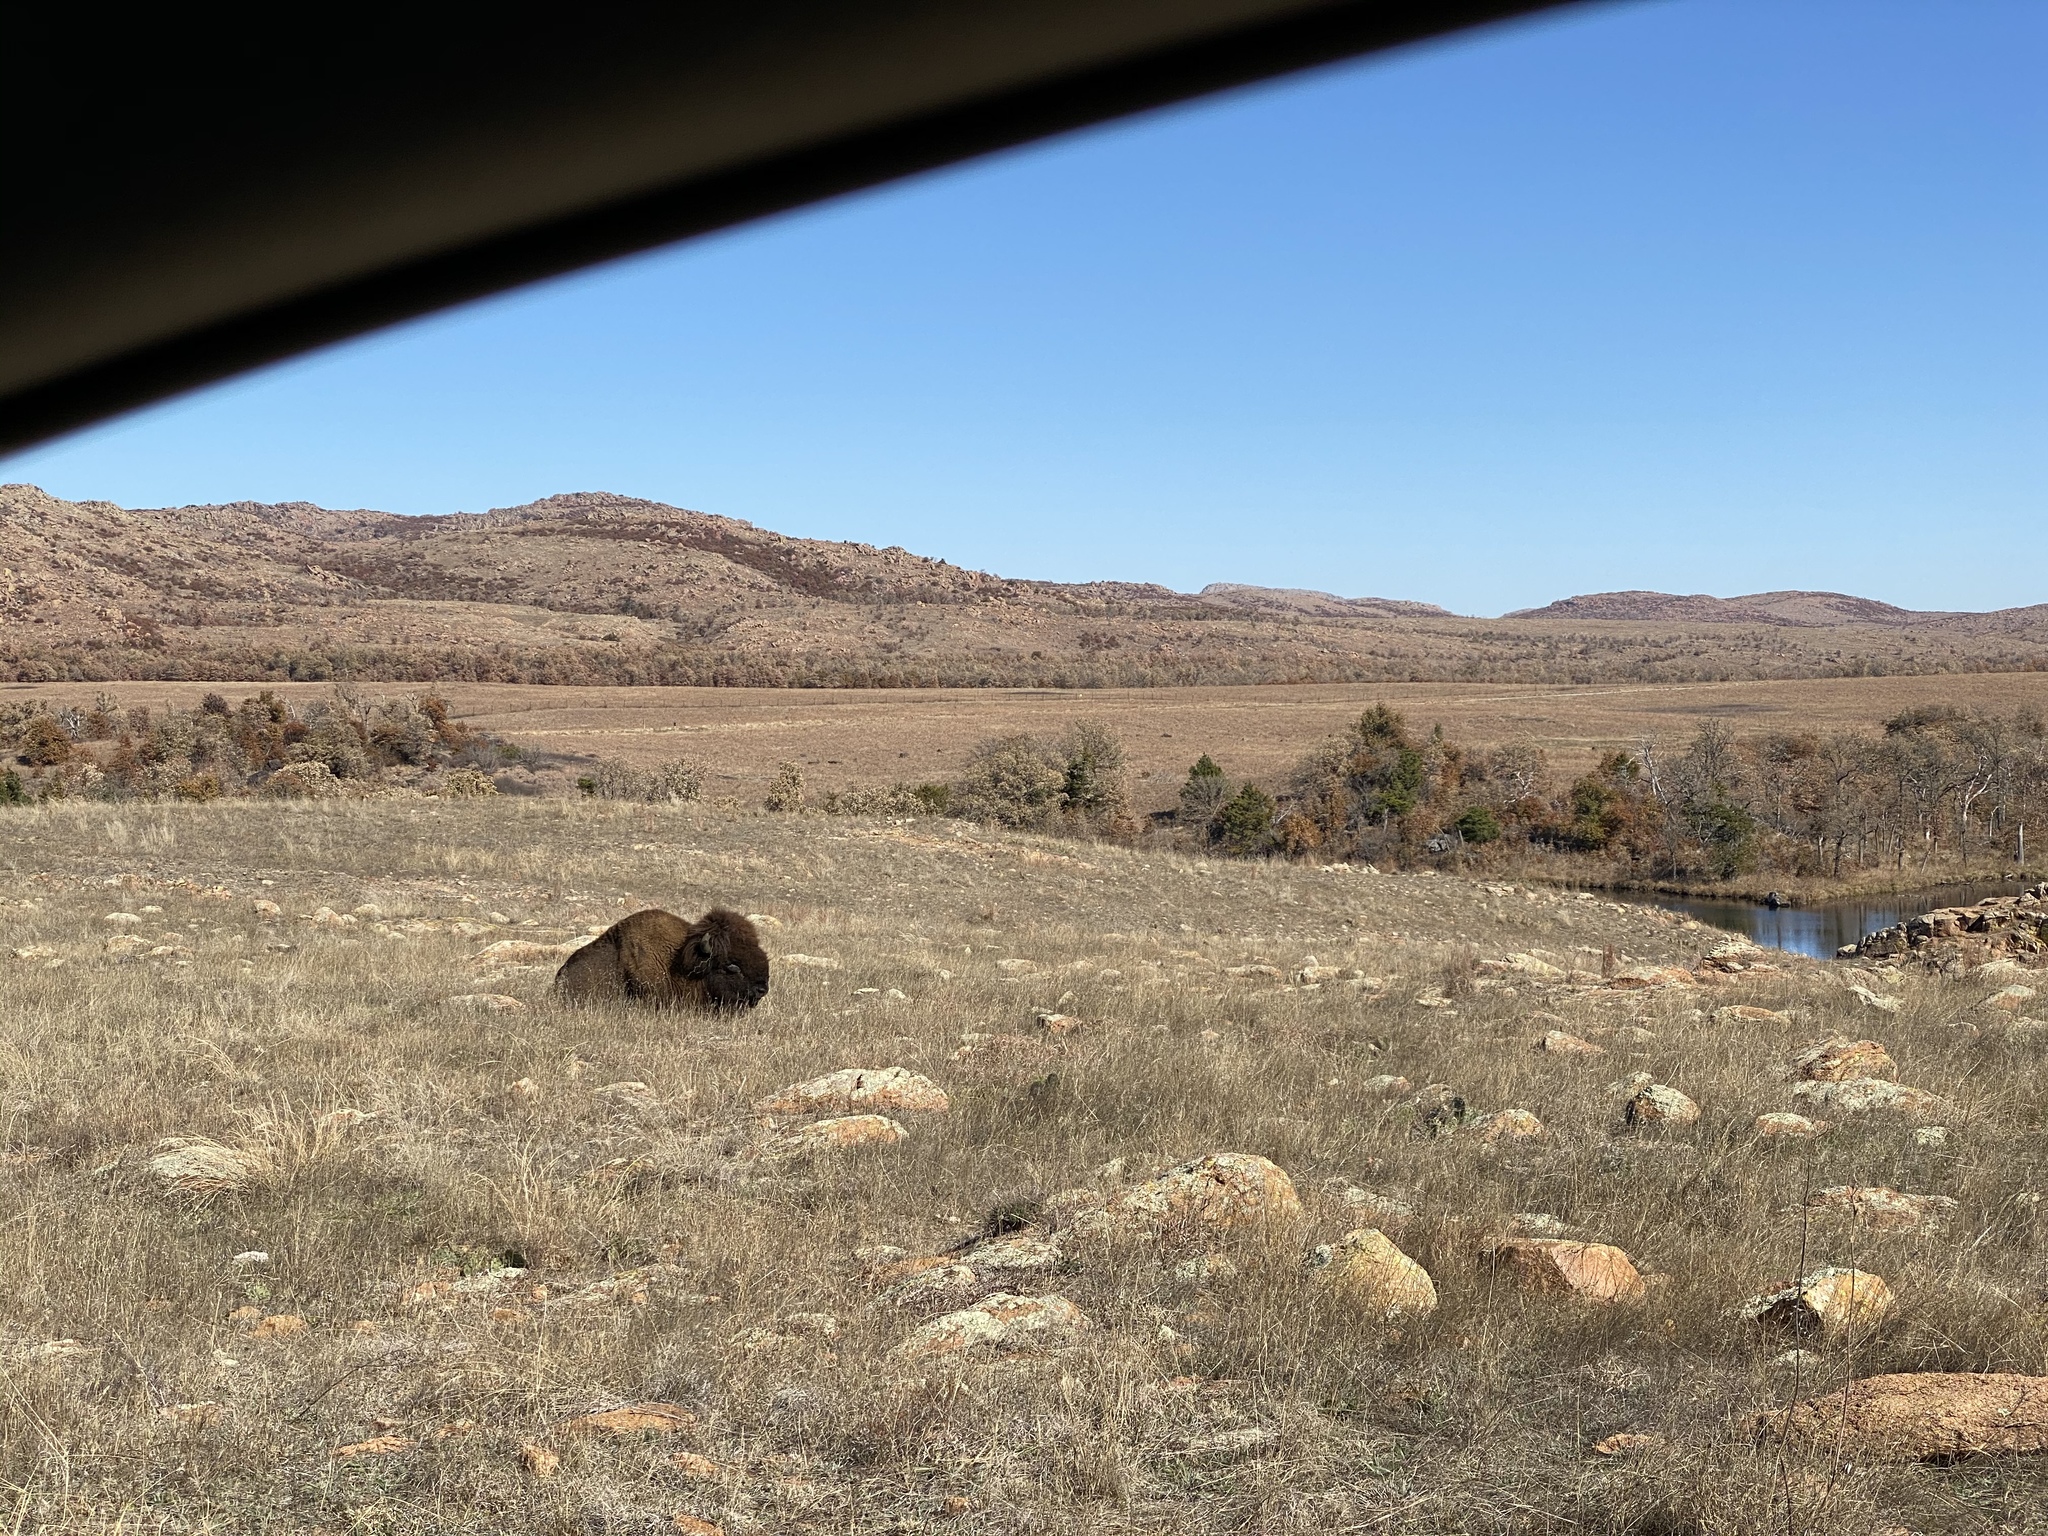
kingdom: Animalia
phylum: Chordata
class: Mammalia
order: Artiodactyla
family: Bovidae
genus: Bison
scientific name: Bison bison
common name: American bison
